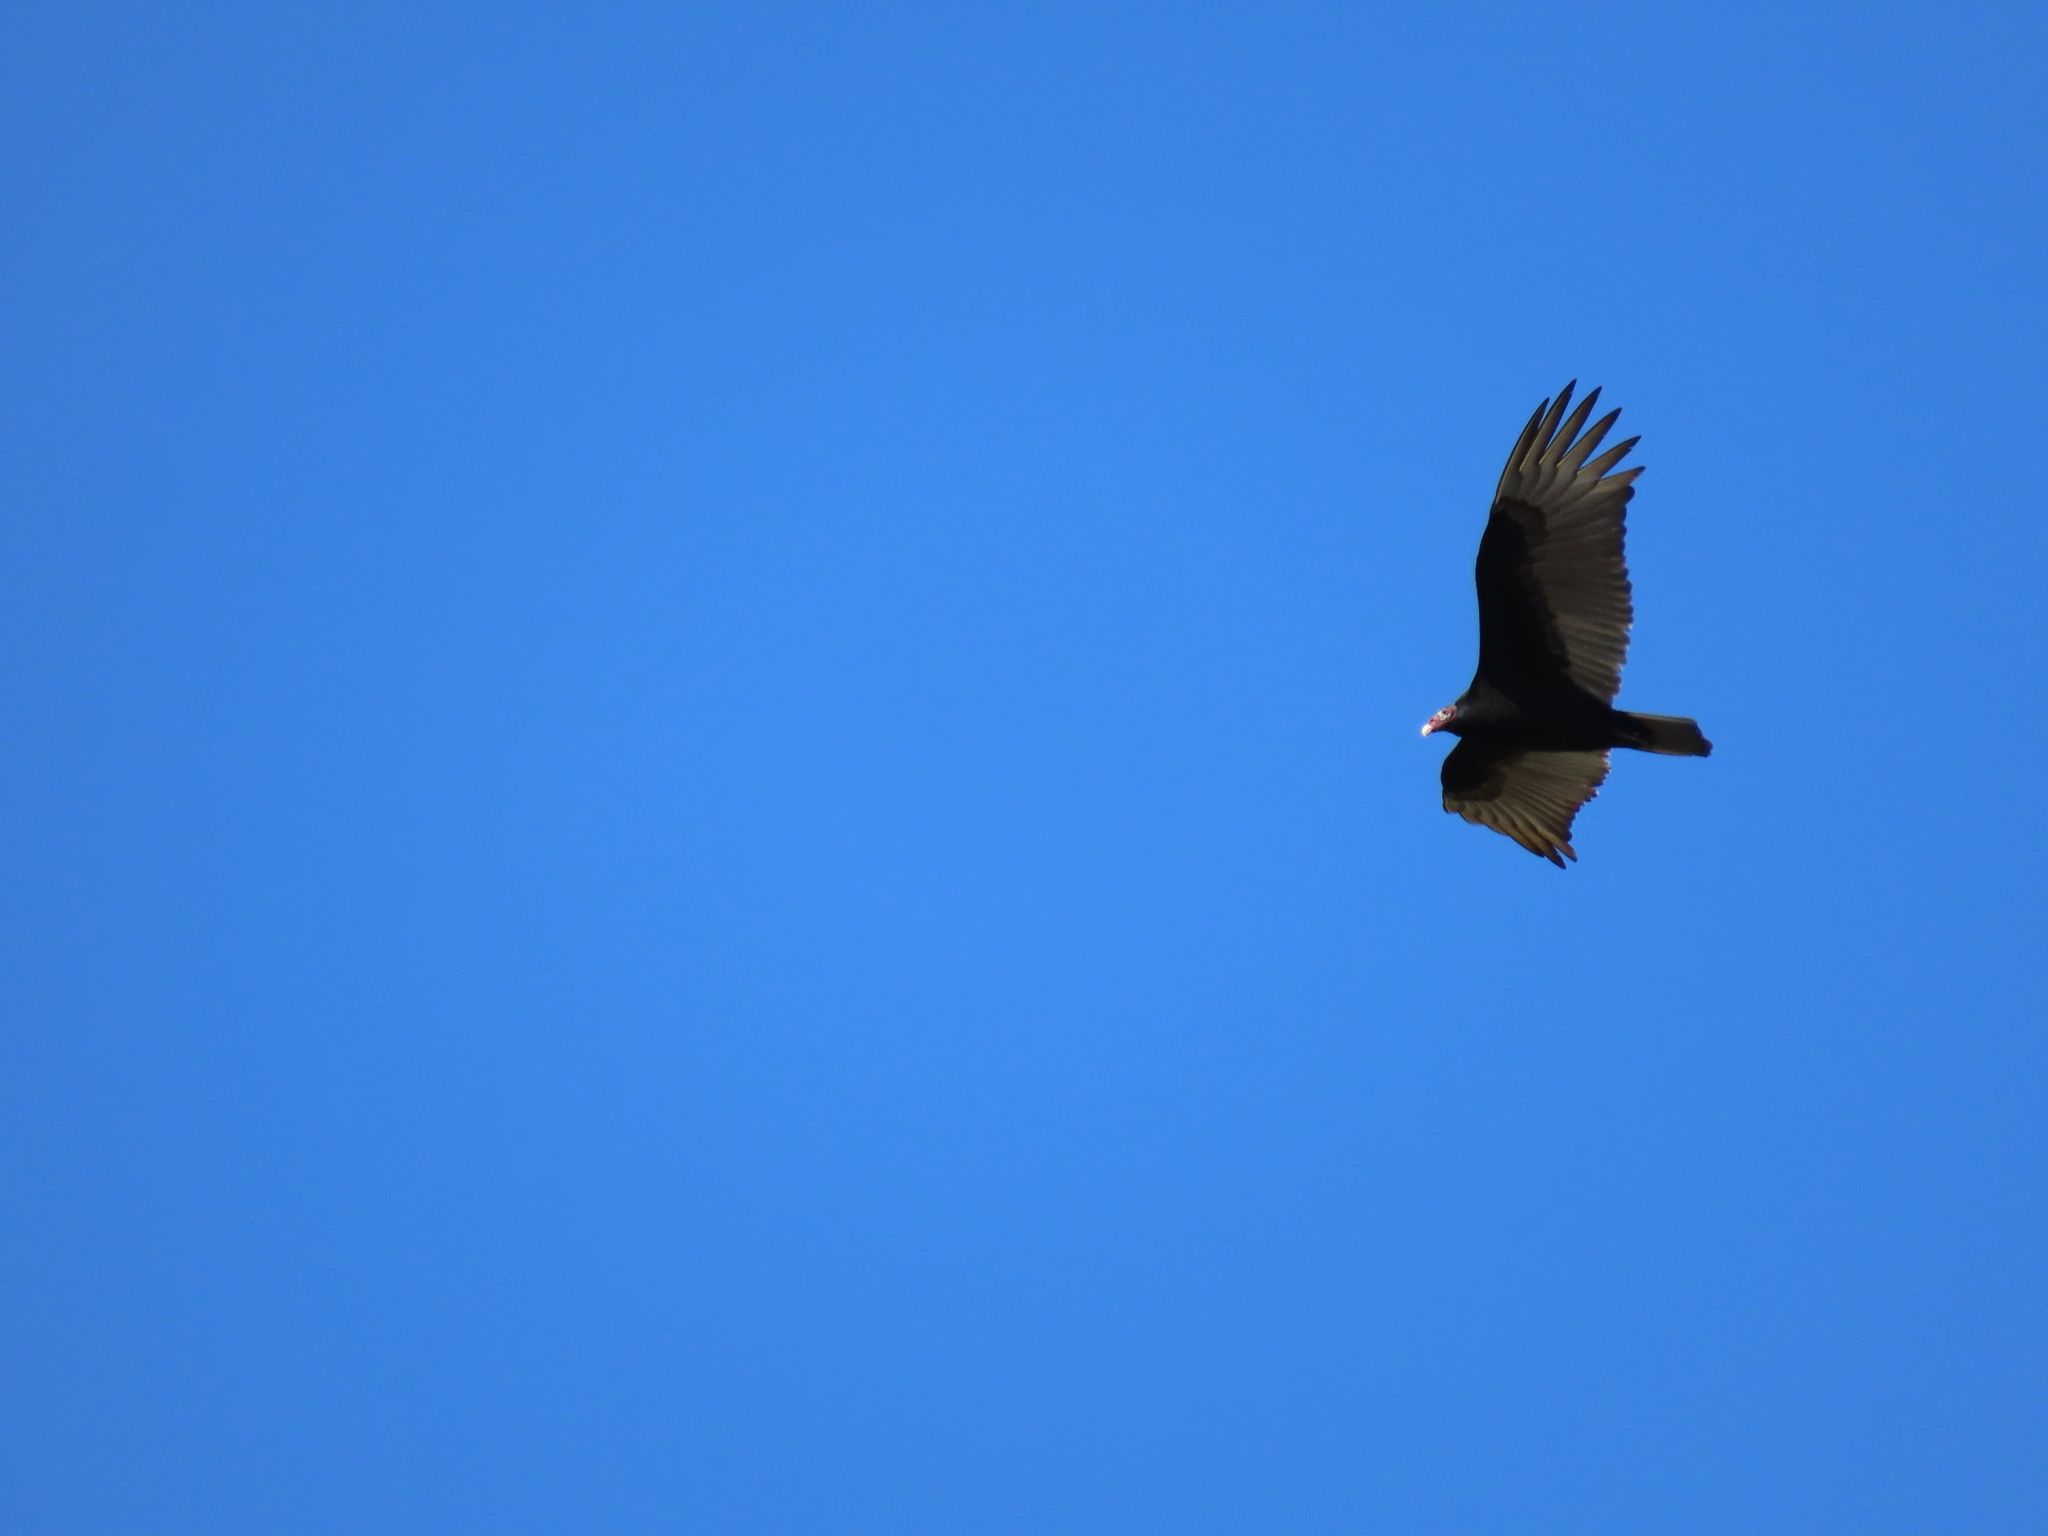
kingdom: Animalia
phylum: Chordata
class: Aves
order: Accipitriformes
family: Cathartidae
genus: Cathartes
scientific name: Cathartes aura
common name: Turkey vulture
